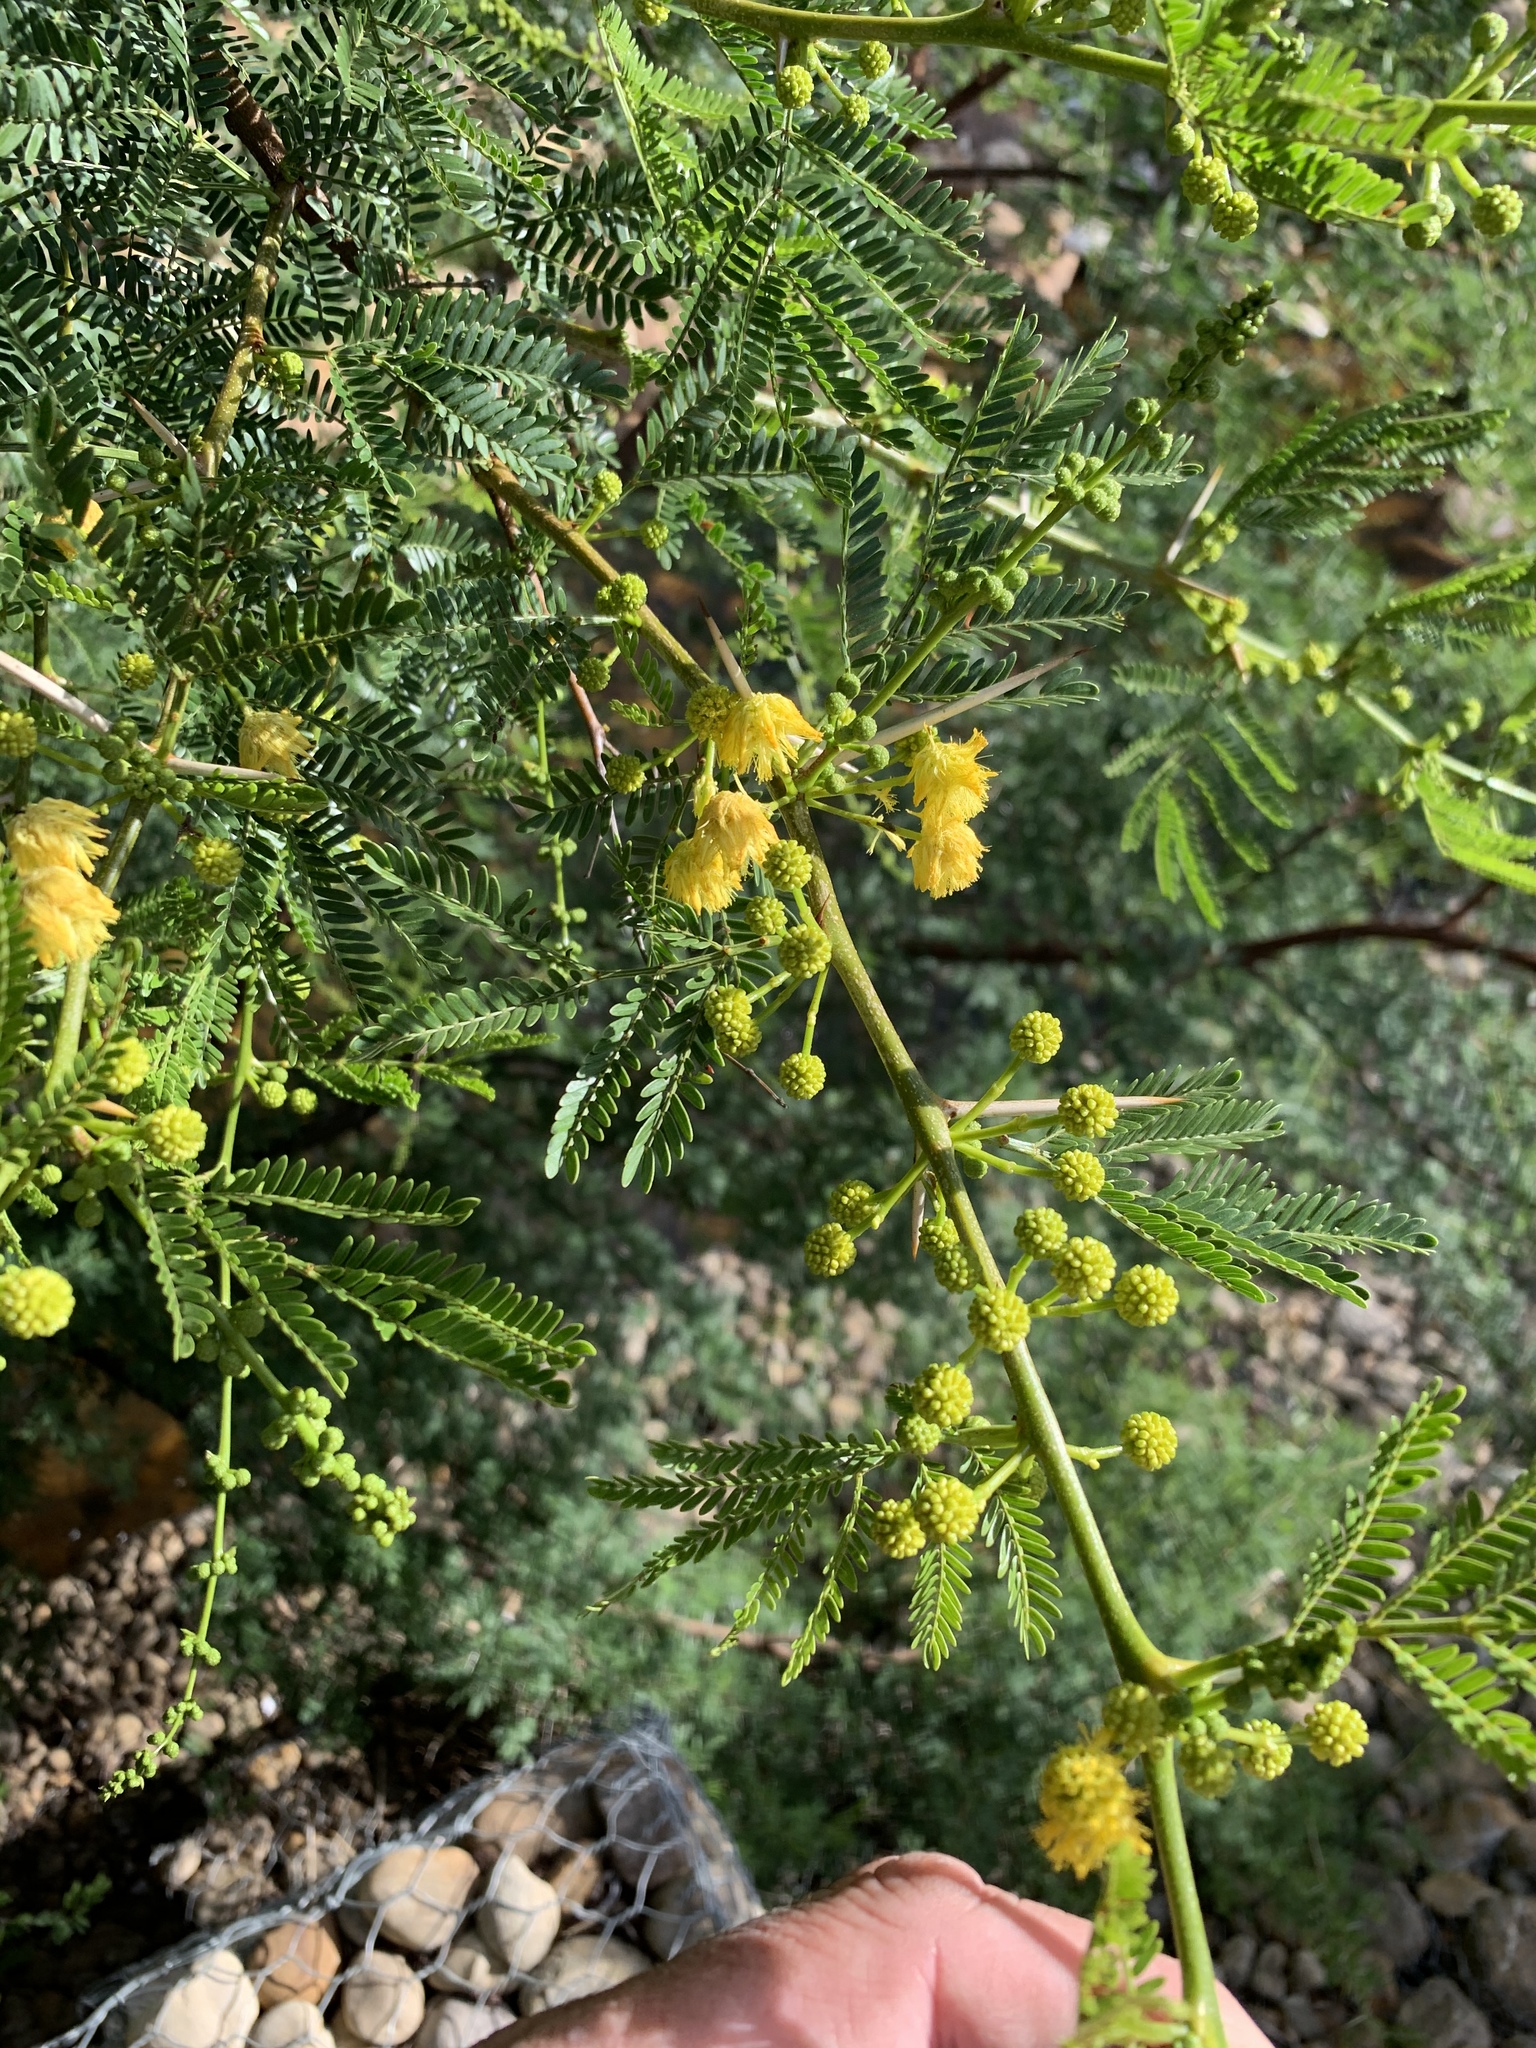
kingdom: Plantae
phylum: Tracheophyta
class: Magnoliopsida
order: Fabales
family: Fabaceae
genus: Vachellia
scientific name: Vachellia karroo
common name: Sweet thorn
